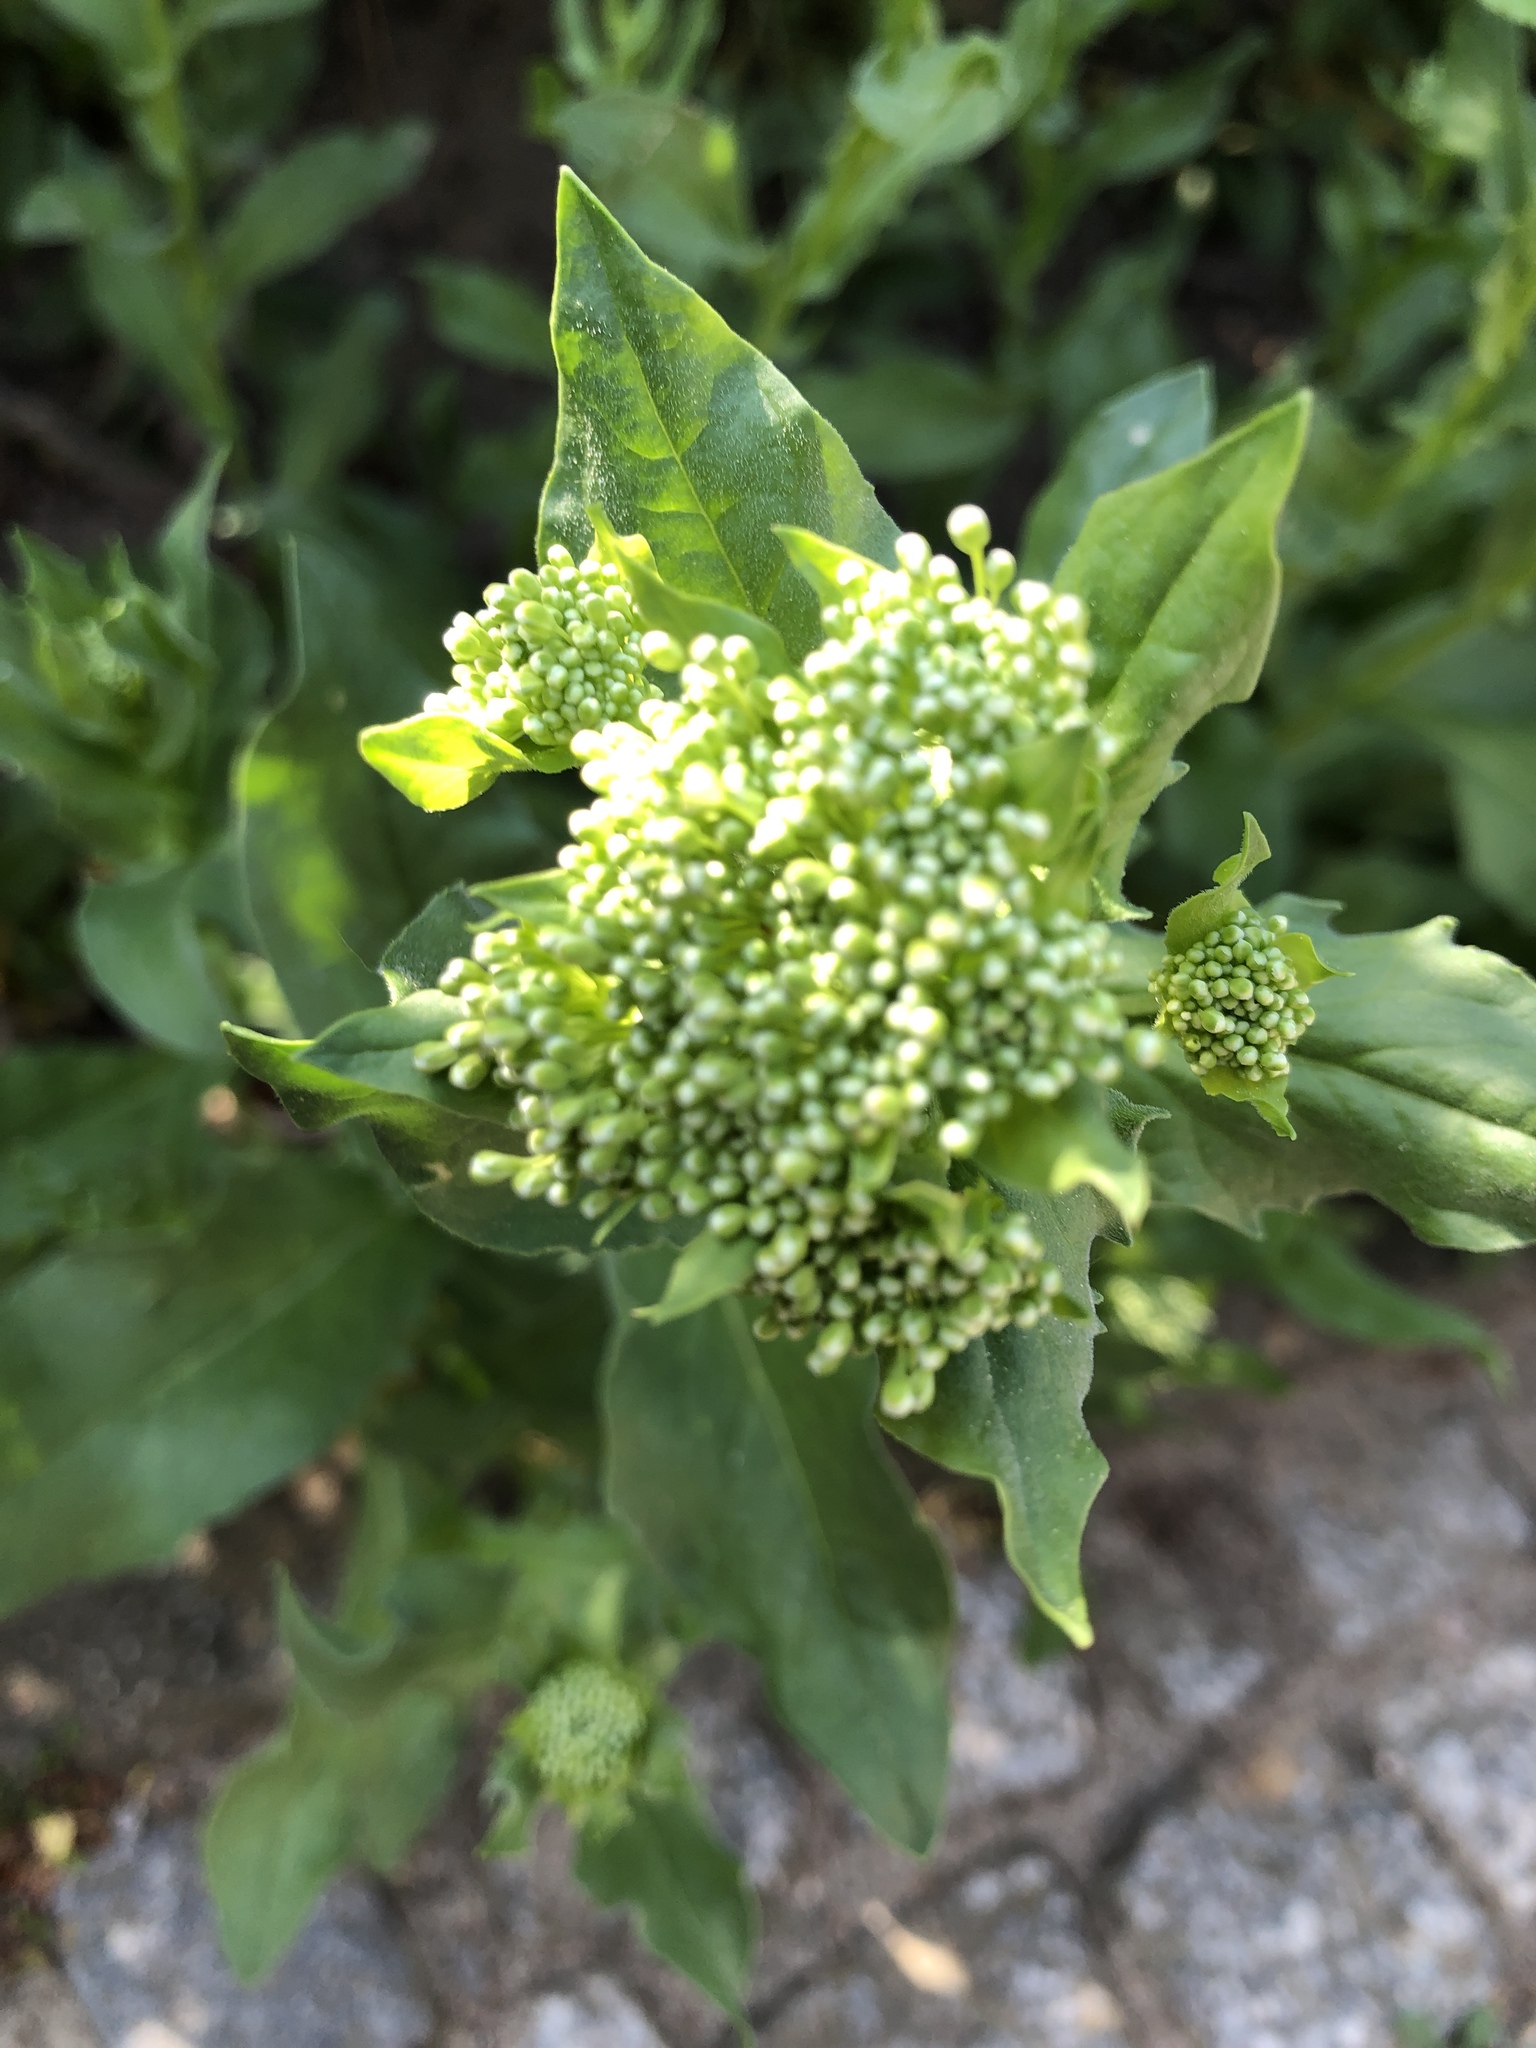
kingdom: Plantae
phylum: Tracheophyta
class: Magnoliopsida
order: Brassicales
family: Brassicaceae
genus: Lepidium
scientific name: Lepidium draba
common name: Hoary cress
